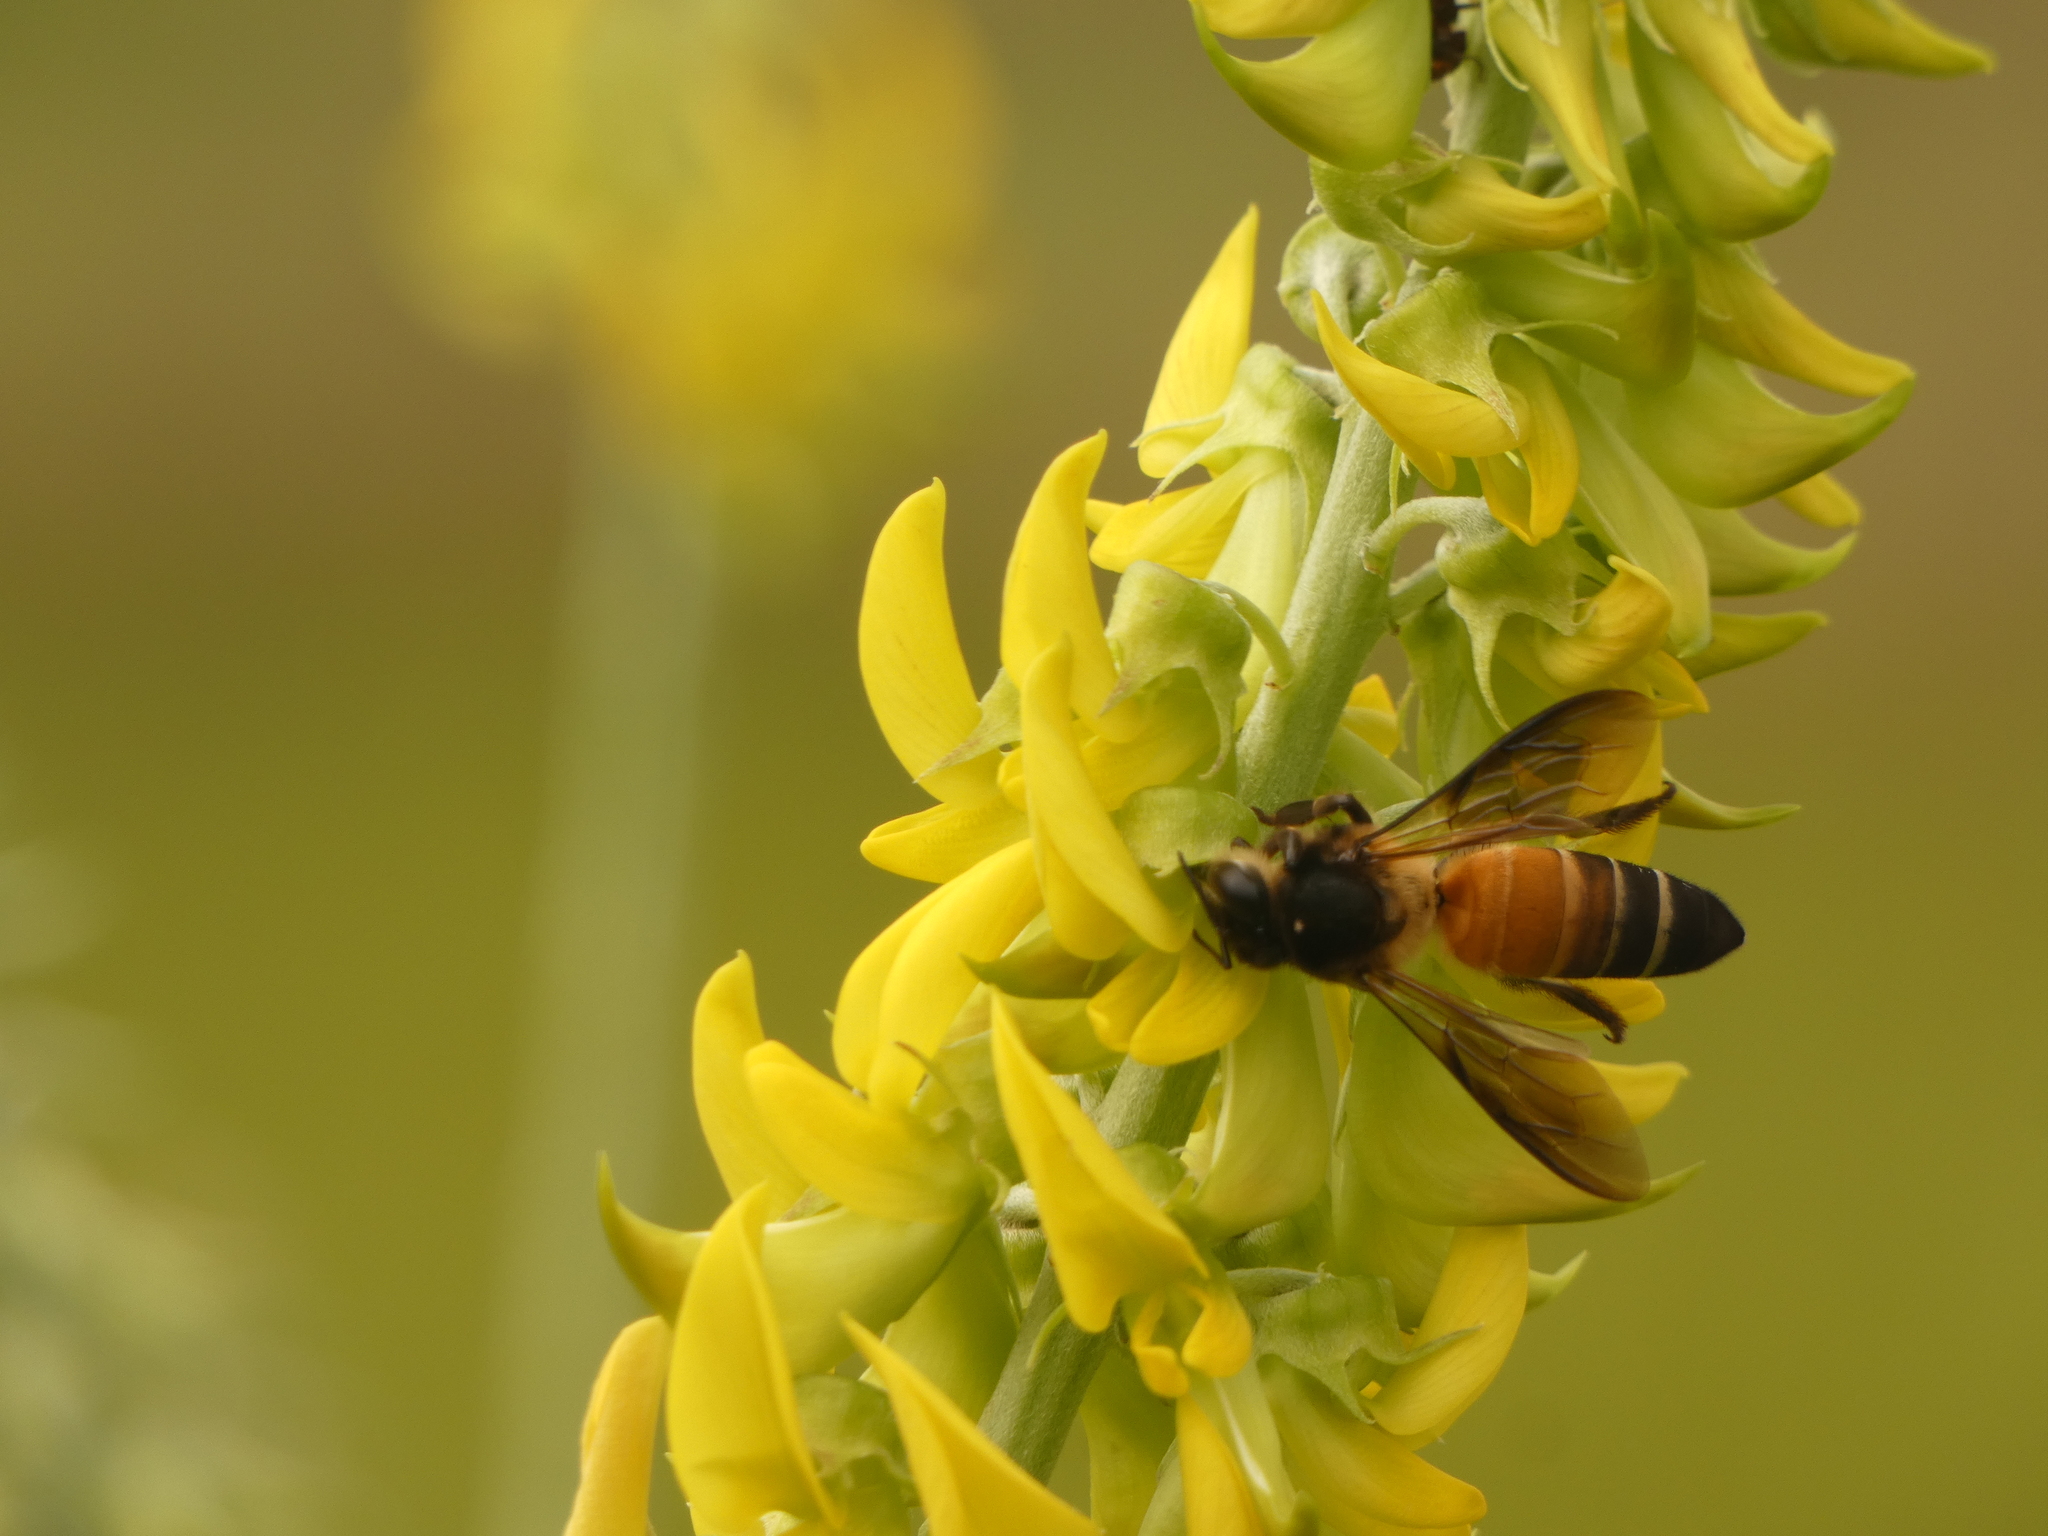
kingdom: Animalia
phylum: Arthropoda
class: Insecta
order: Hymenoptera
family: Apidae
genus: Apis
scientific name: Apis dorsata
